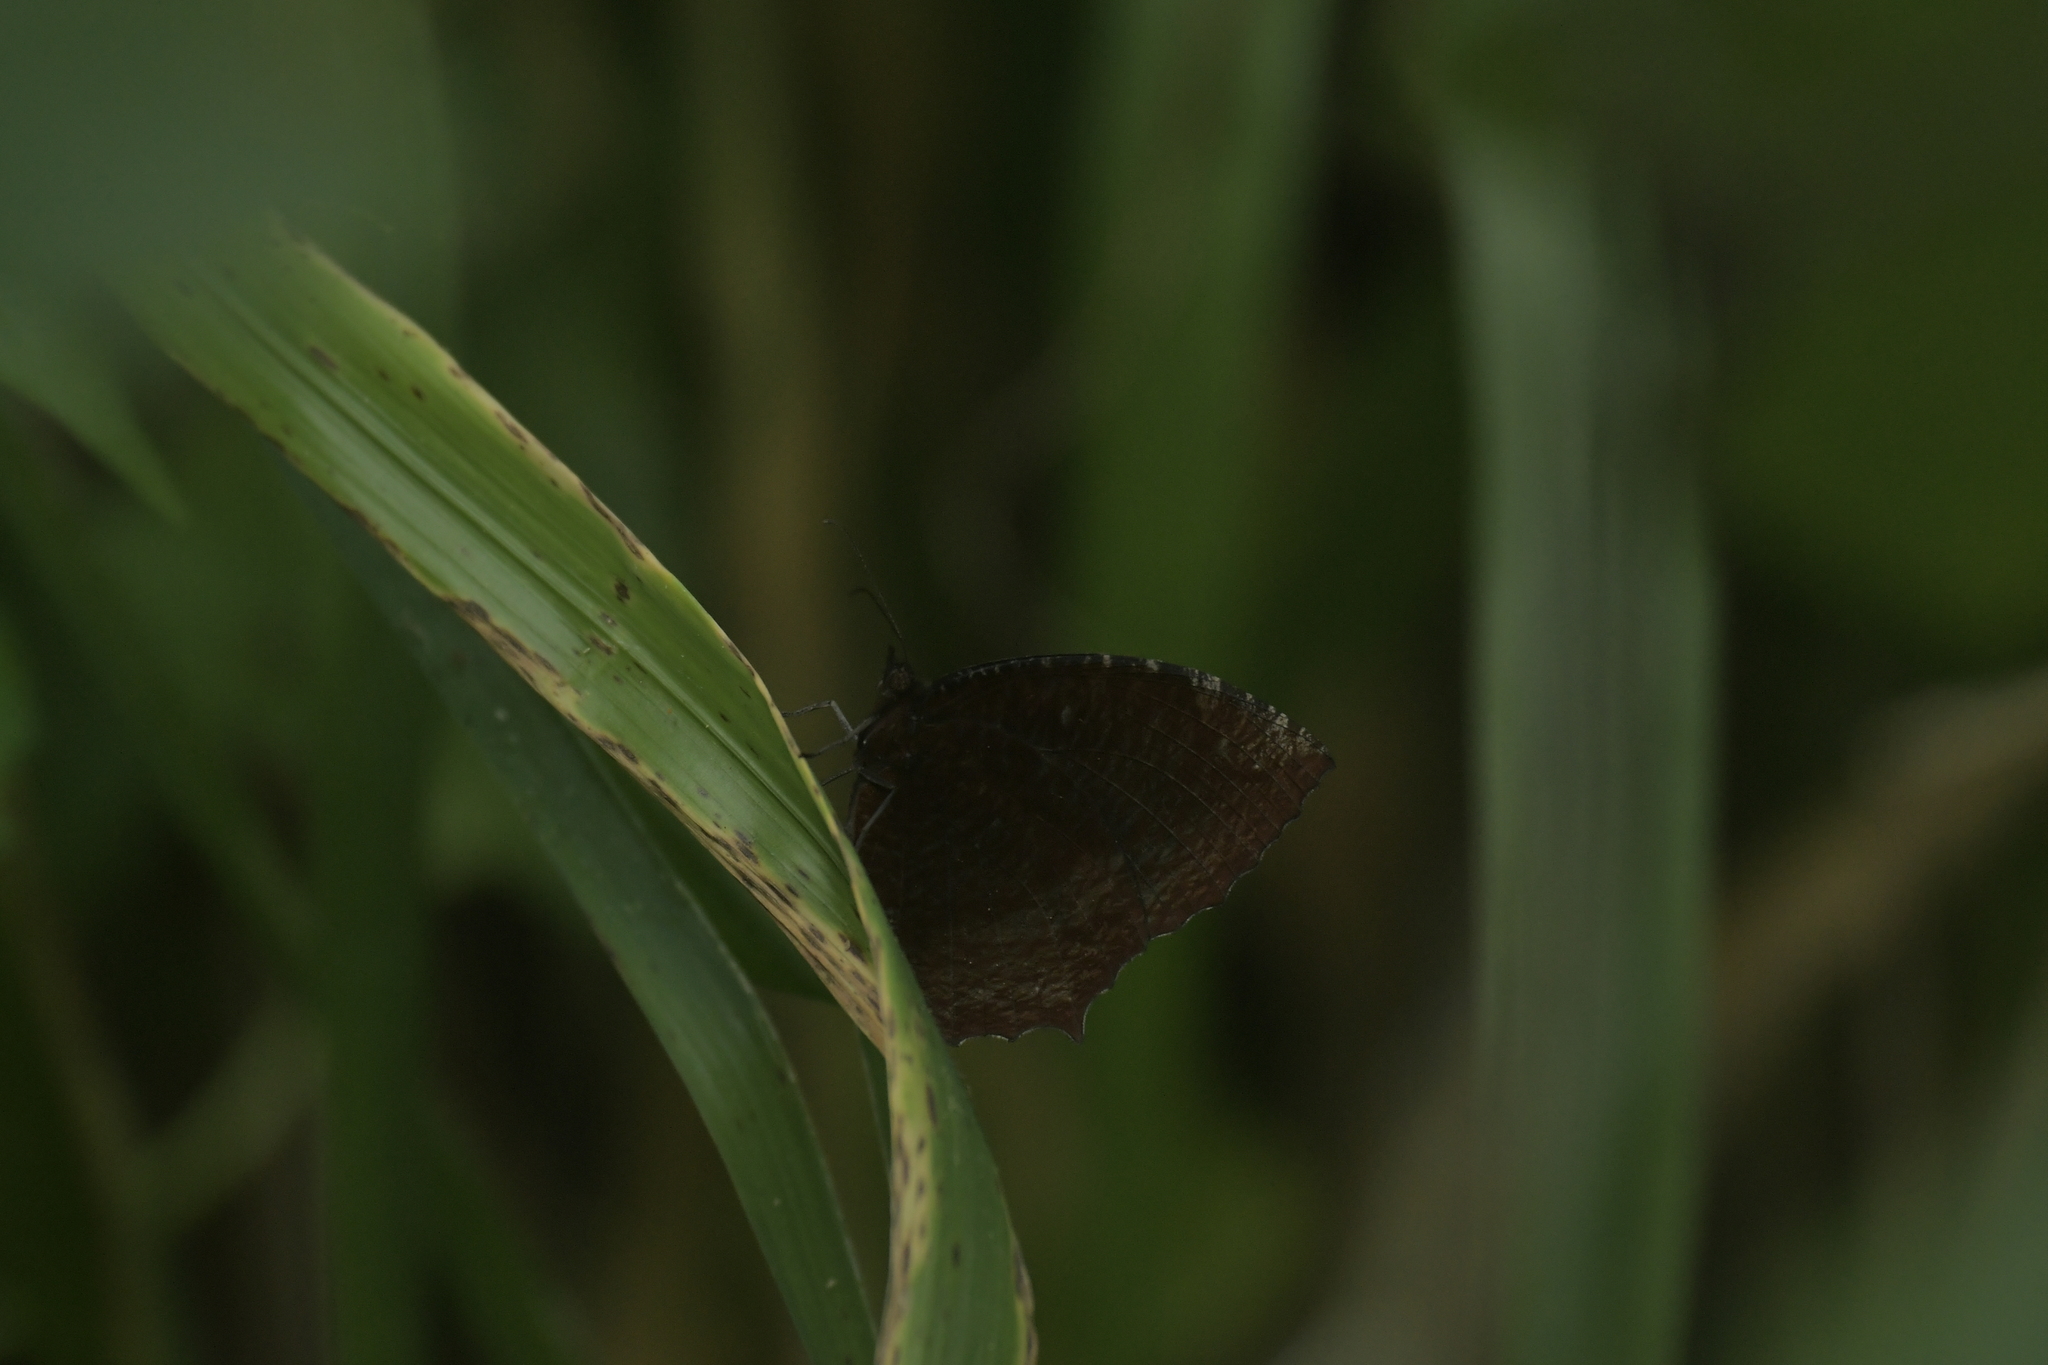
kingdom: Animalia
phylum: Arthropoda
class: Insecta
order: Lepidoptera
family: Nymphalidae
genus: Elymnias
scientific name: Elymnias hypermnestra
